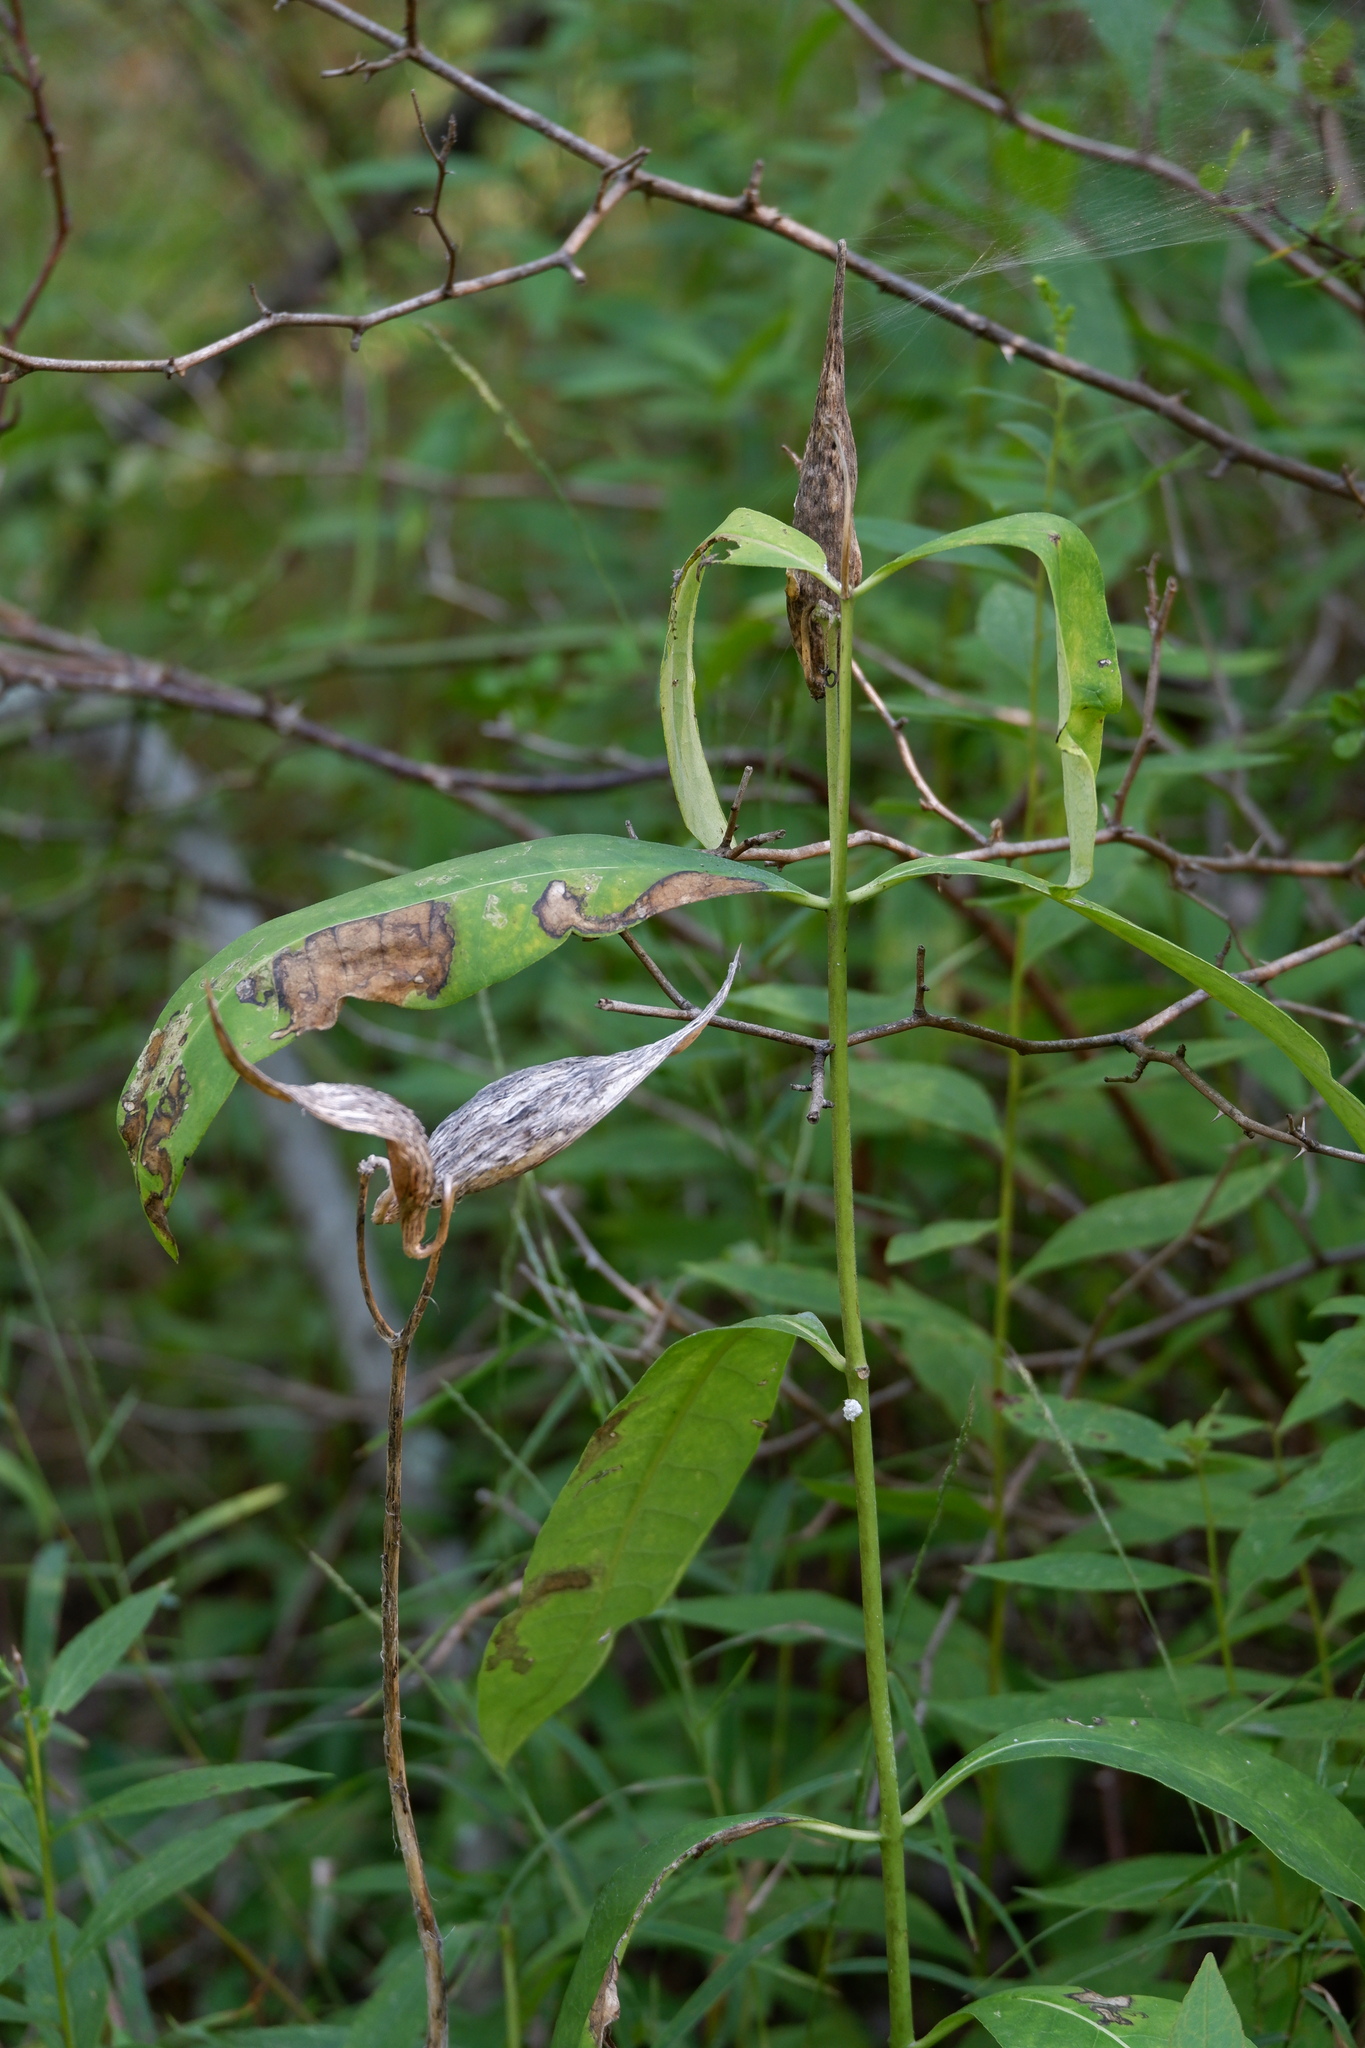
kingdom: Plantae
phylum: Tracheophyta
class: Magnoliopsida
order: Gentianales
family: Apocynaceae
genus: Asclepias
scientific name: Asclepias purpurascens
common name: Purple milkweed
